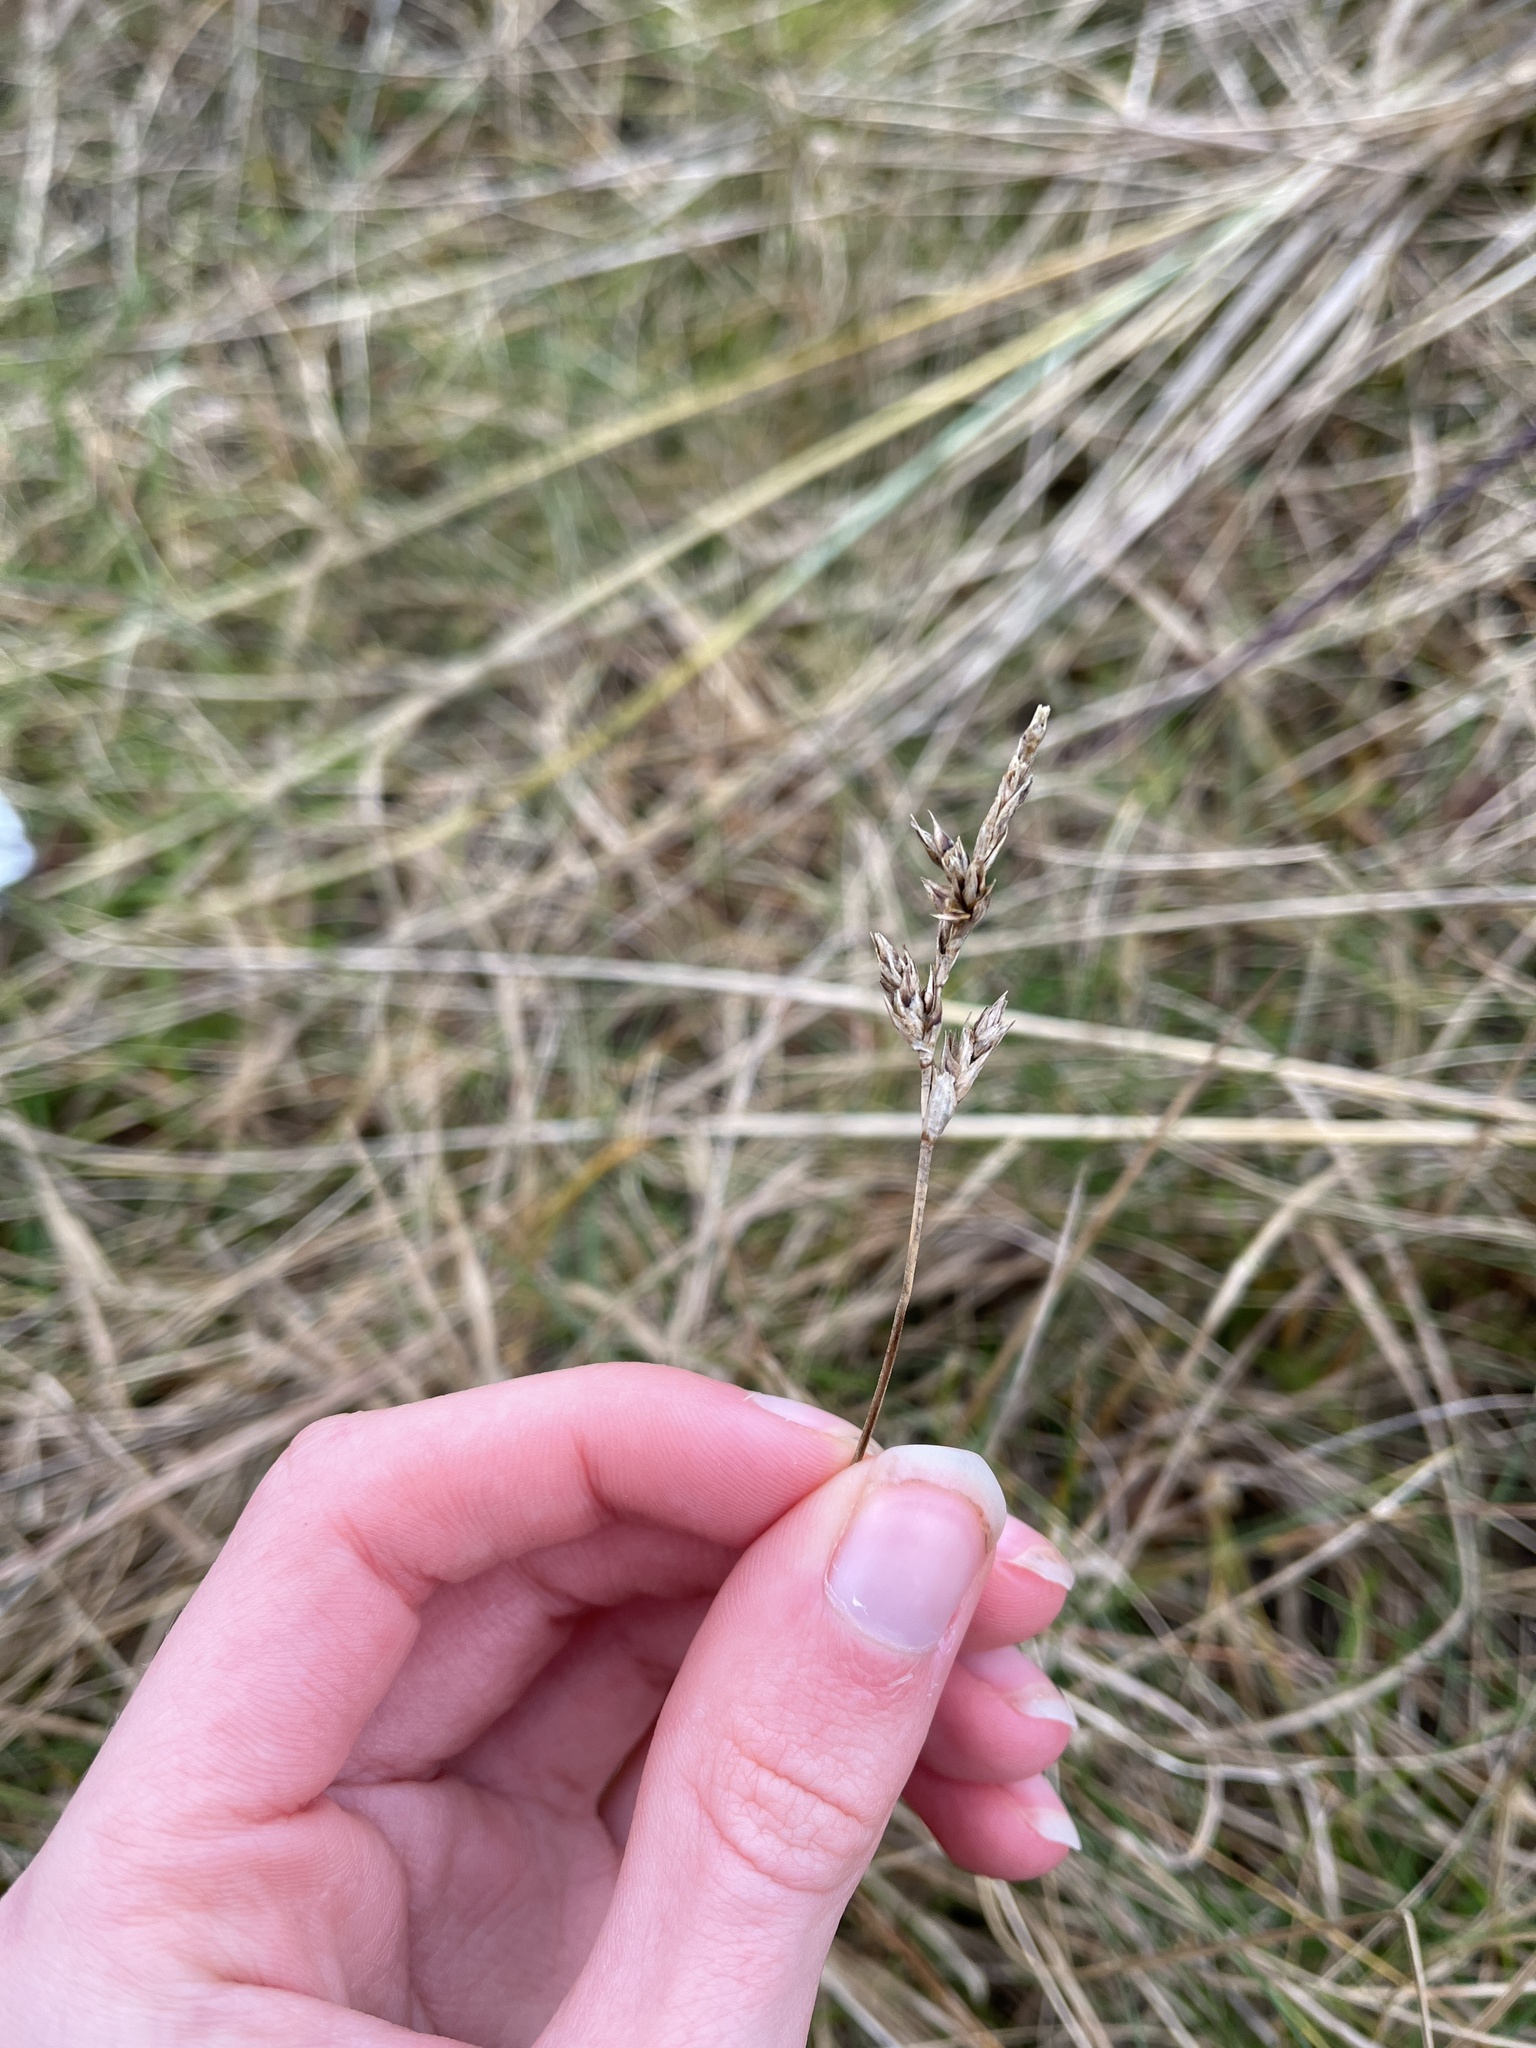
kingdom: Plantae
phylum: Tracheophyta
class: Liliopsida
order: Poales
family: Cyperaceae
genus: Carex
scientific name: Carex arenaria
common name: Sand sedge
